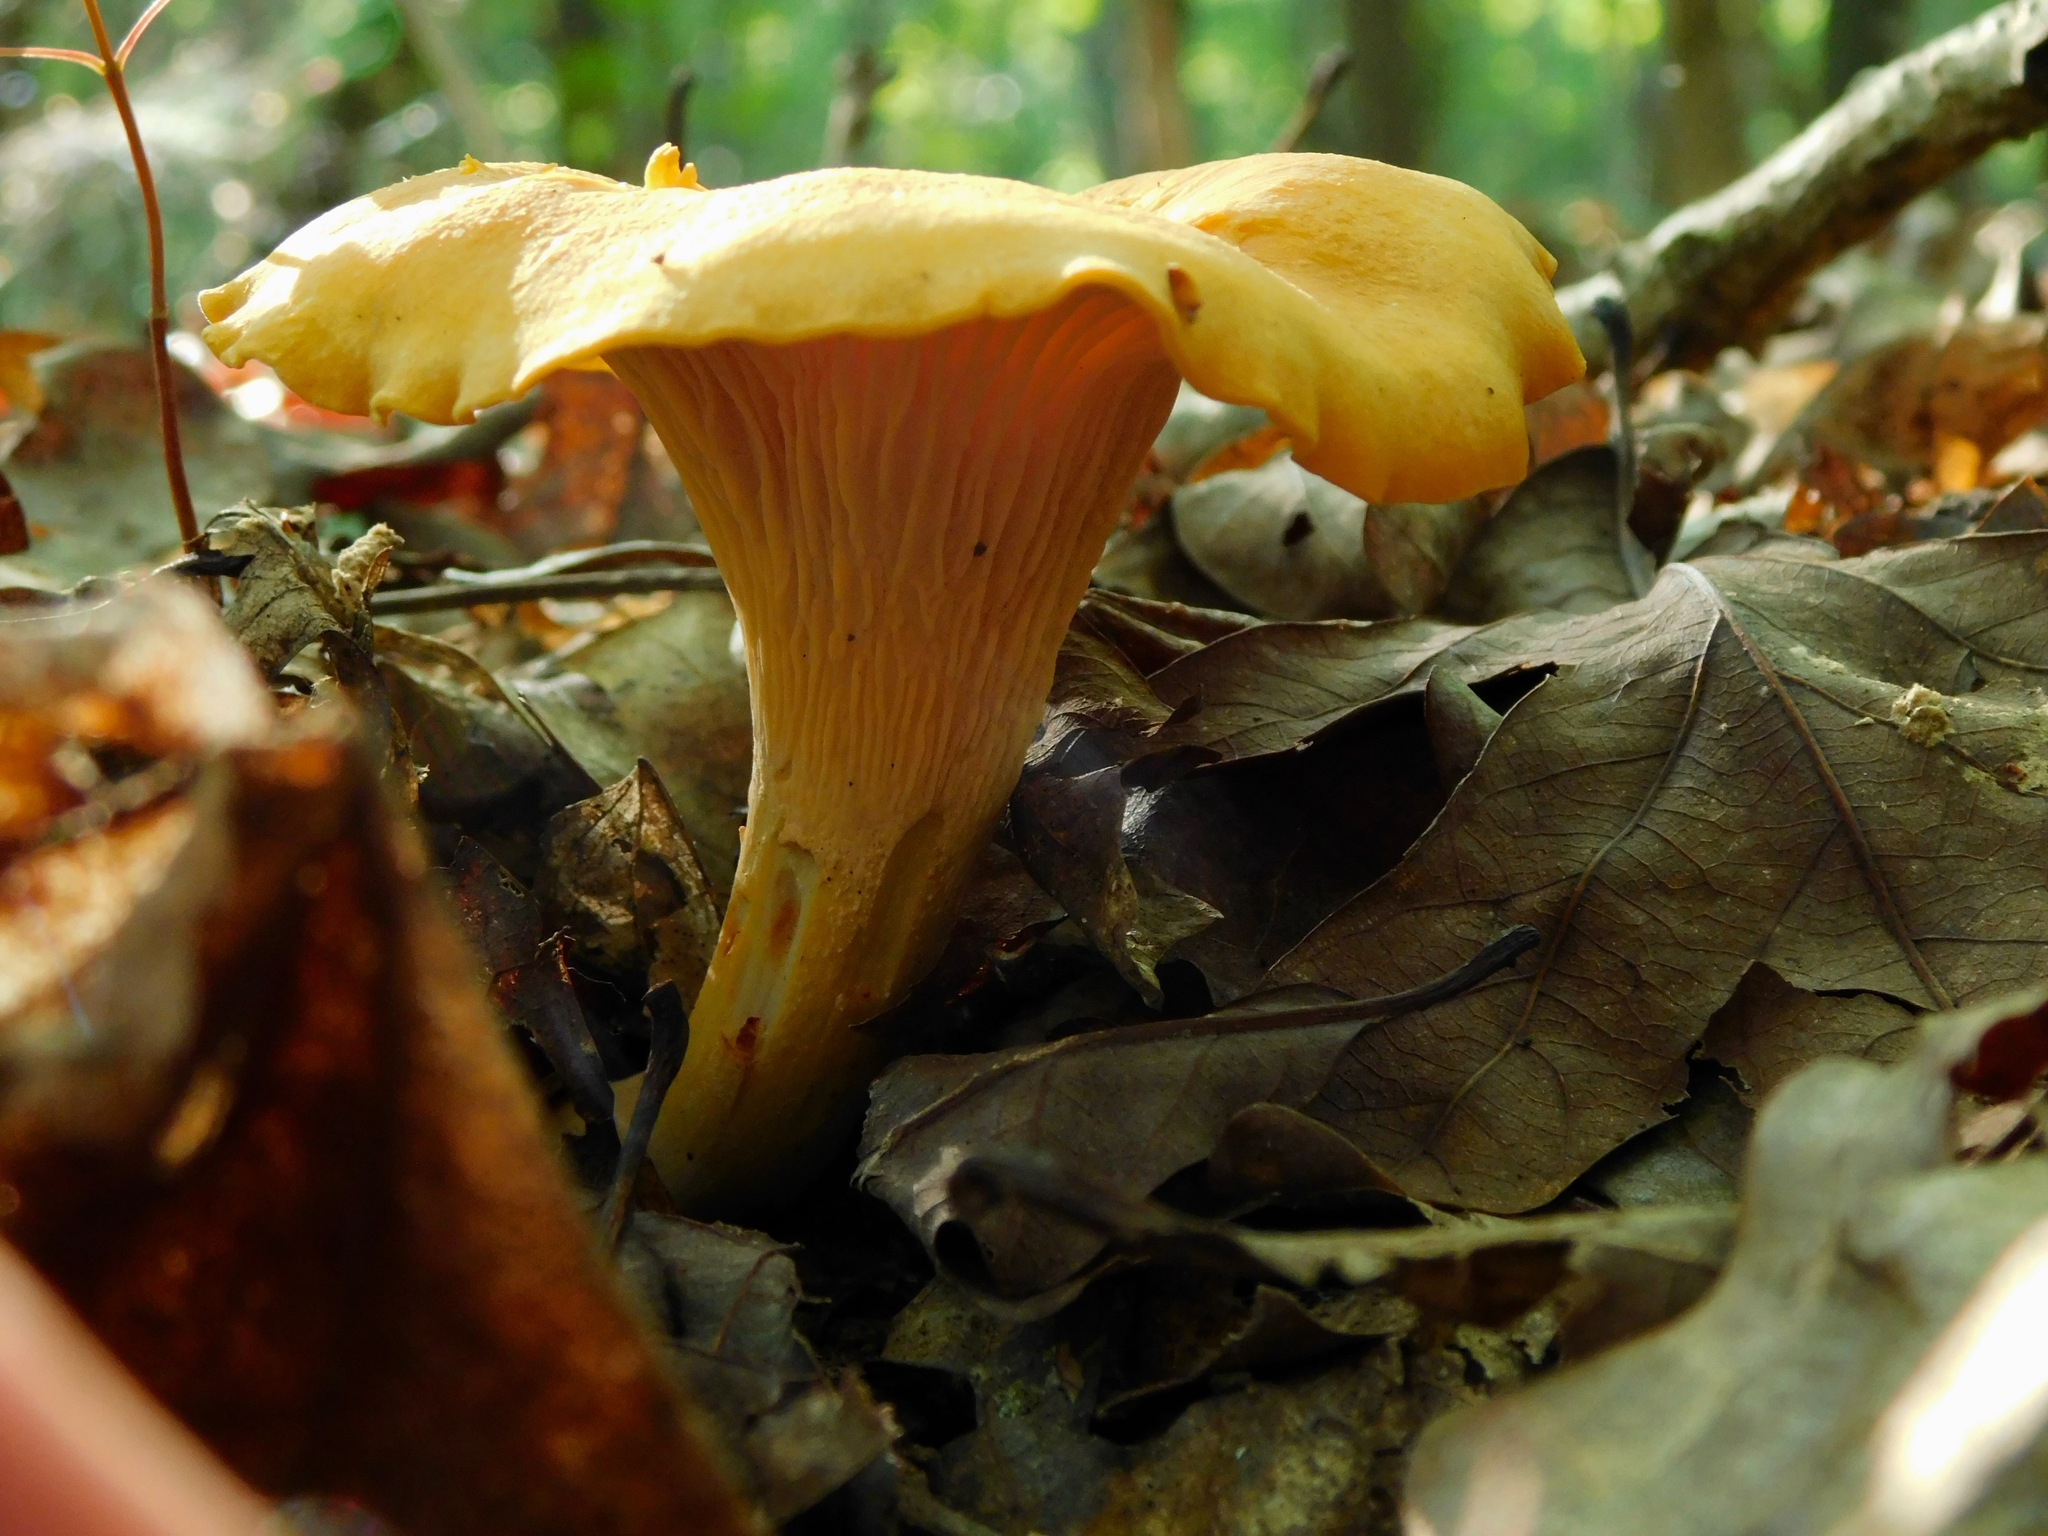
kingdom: Fungi
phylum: Basidiomycota
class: Agaricomycetes
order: Cantharellales
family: Hydnaceae
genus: Cantharellus
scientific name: Cantharellus lateritius
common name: Smooth chanterelle
